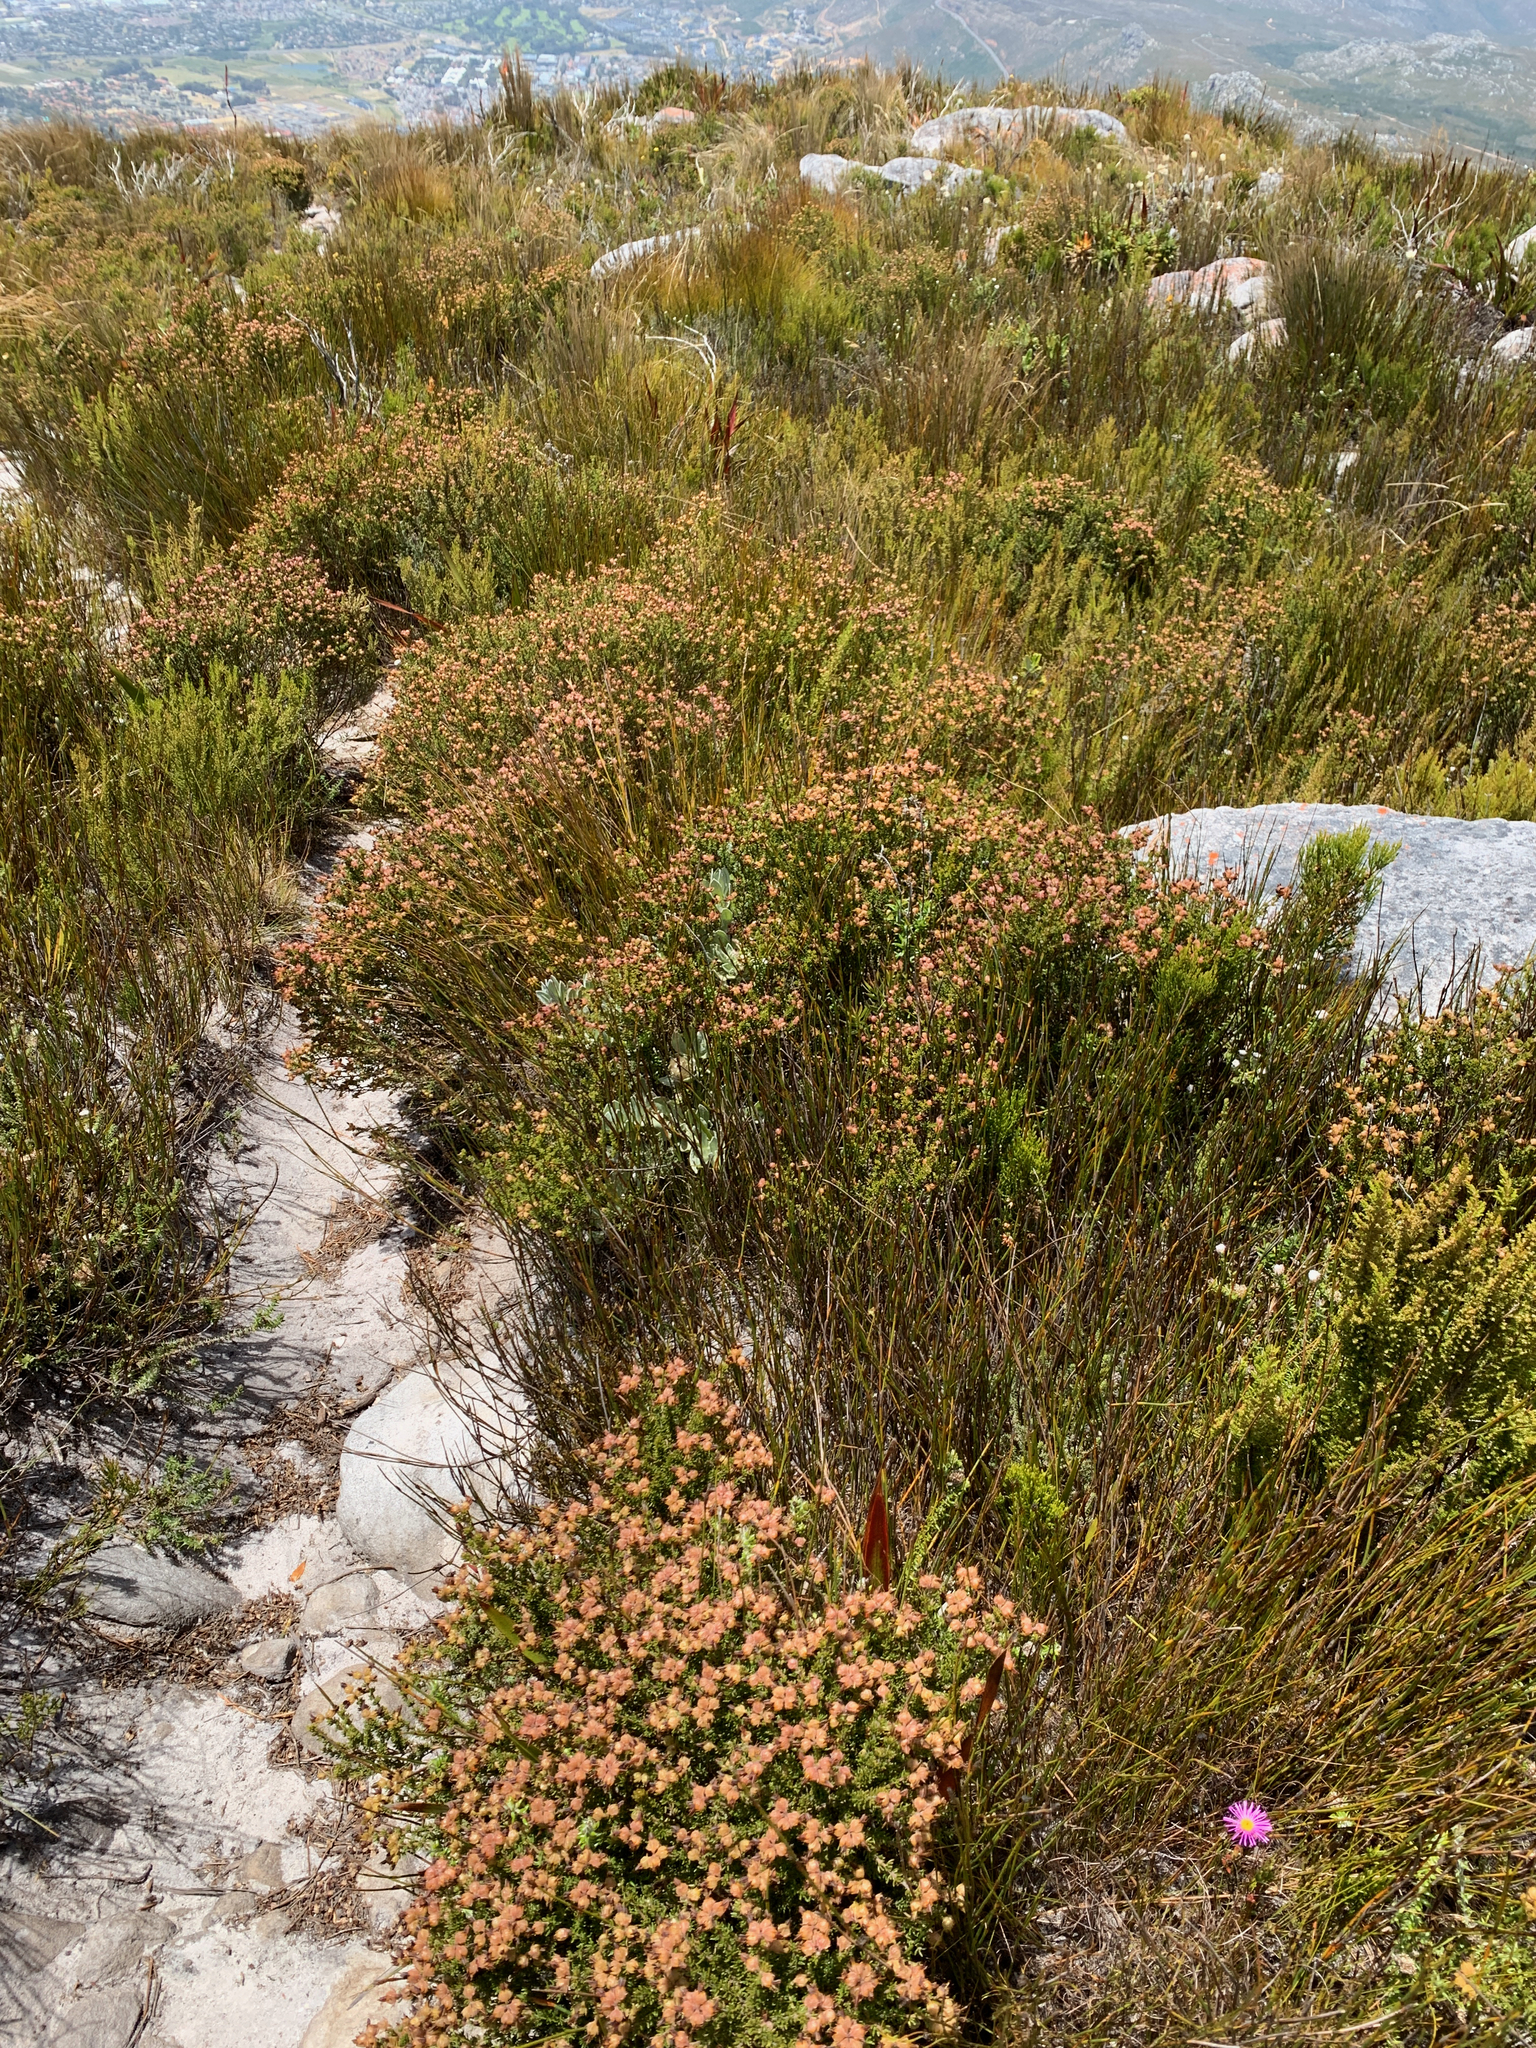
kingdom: Plantae
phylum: Tracheophyta
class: Magnoliopsida
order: Fabales
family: Fabaceae
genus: Aspalathus
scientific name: Aspalathus carnosa
